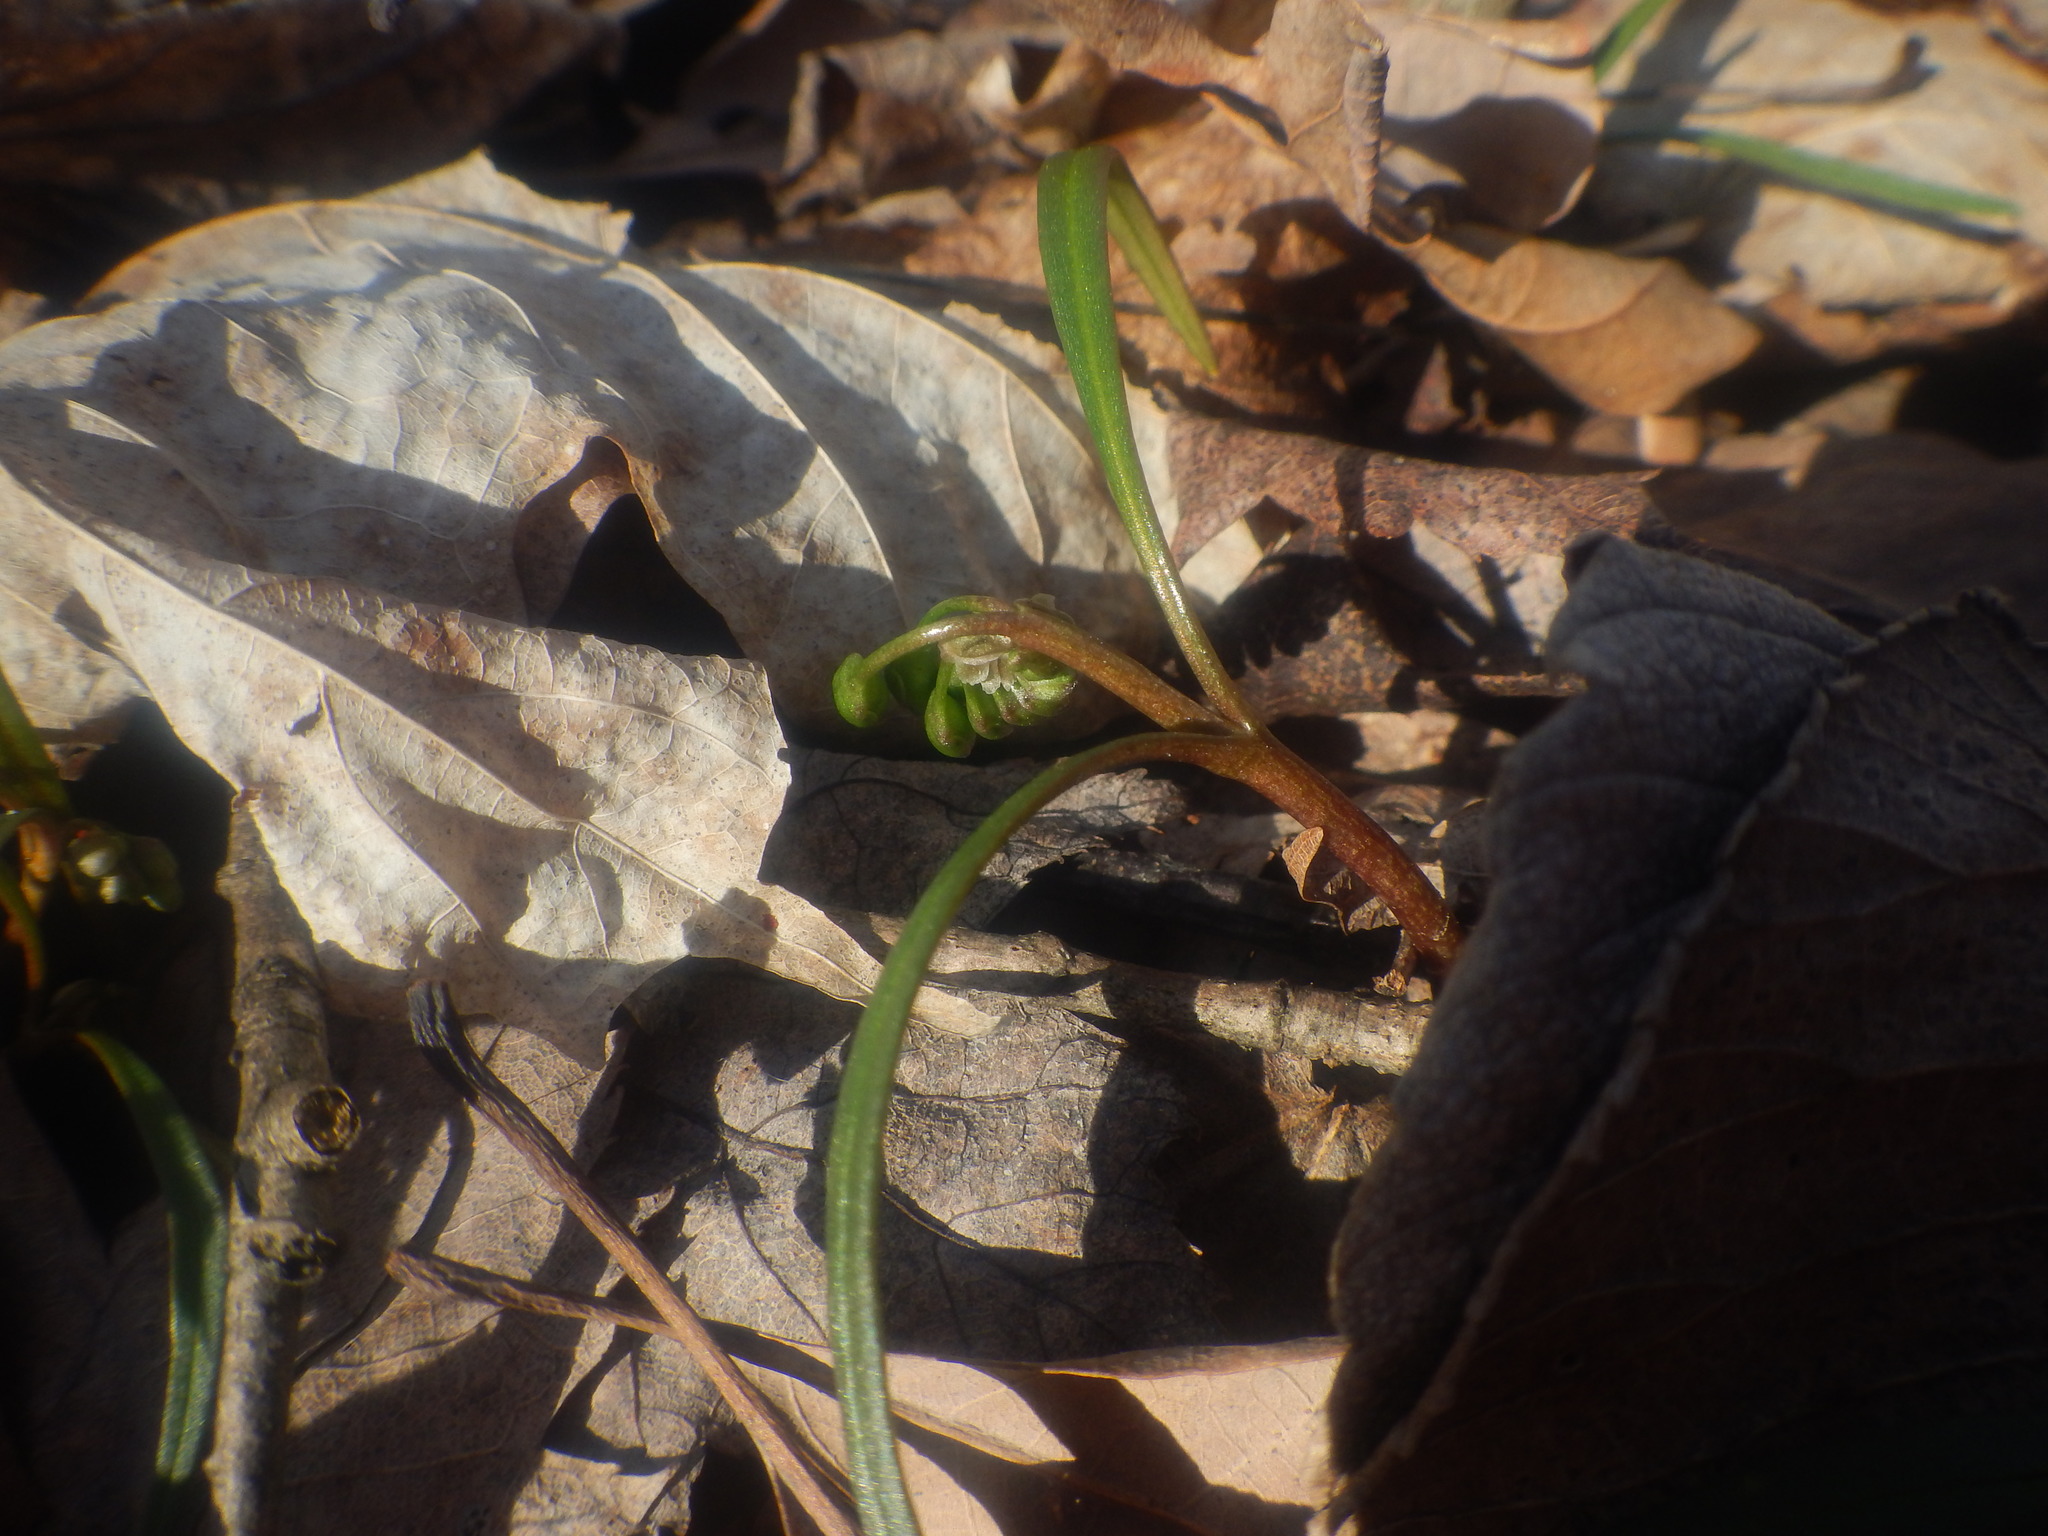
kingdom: Plantae
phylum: Tracheophyta
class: Magnoliopsida
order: Caryophyllales
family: Montiaceae
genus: Claytonia
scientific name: Claytonia virginica
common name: Virginia springbeauty
